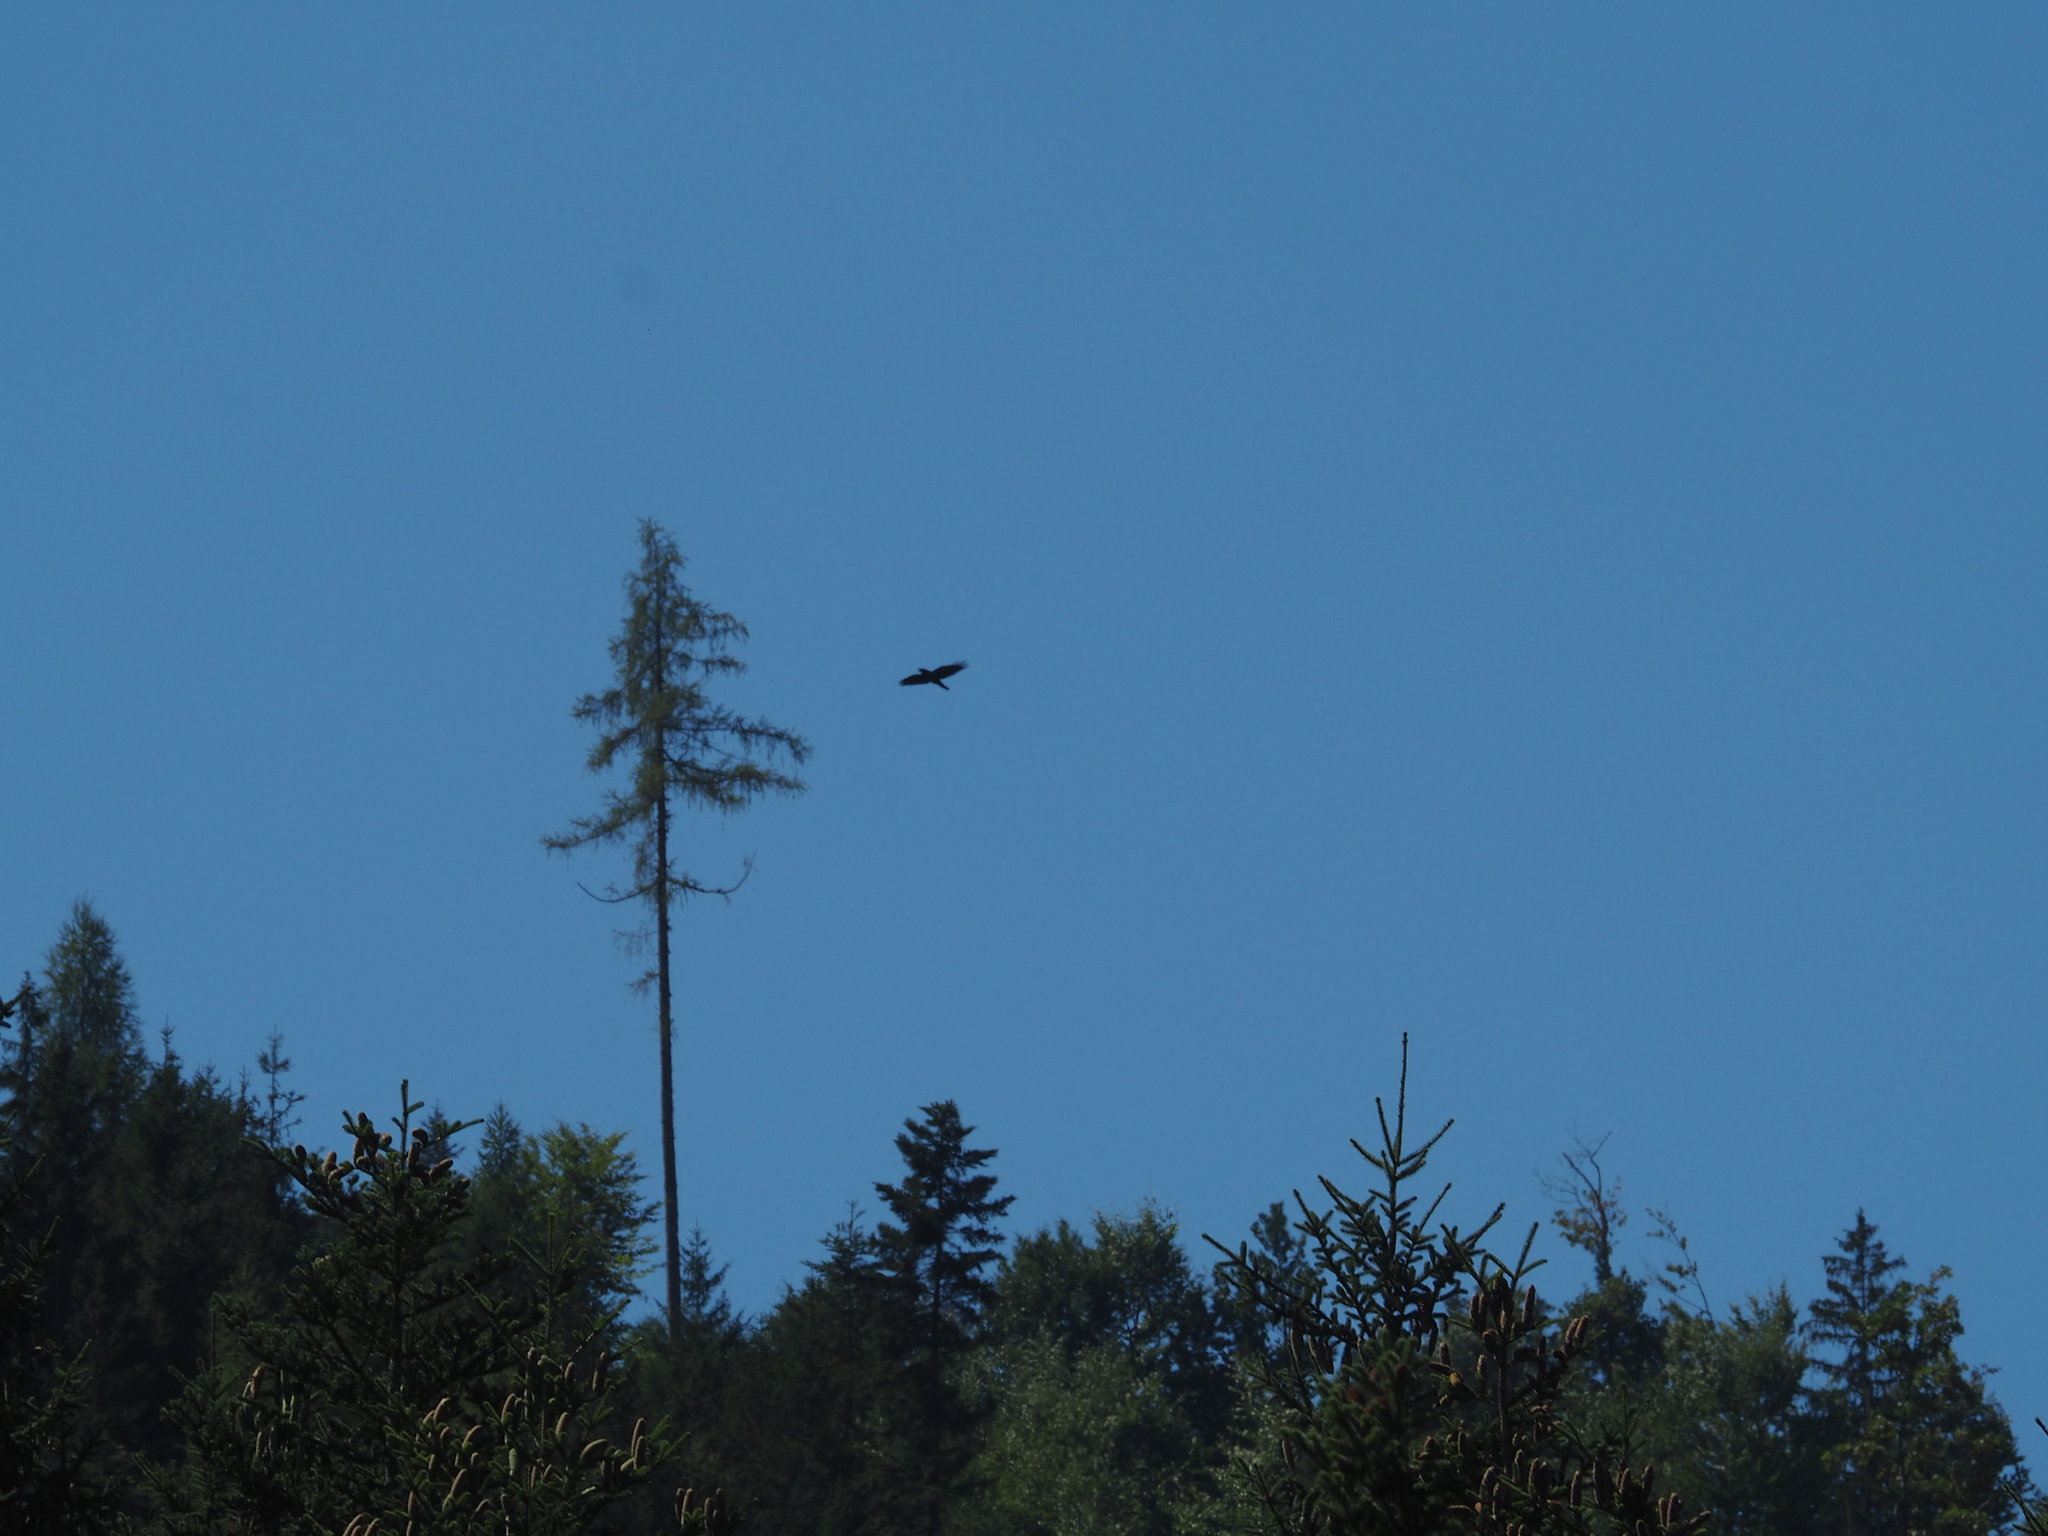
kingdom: Animalia
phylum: Chordata
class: Aves
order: Passeriformes
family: Corvidae
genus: Corvus
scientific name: Corvus corax
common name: Common raven
